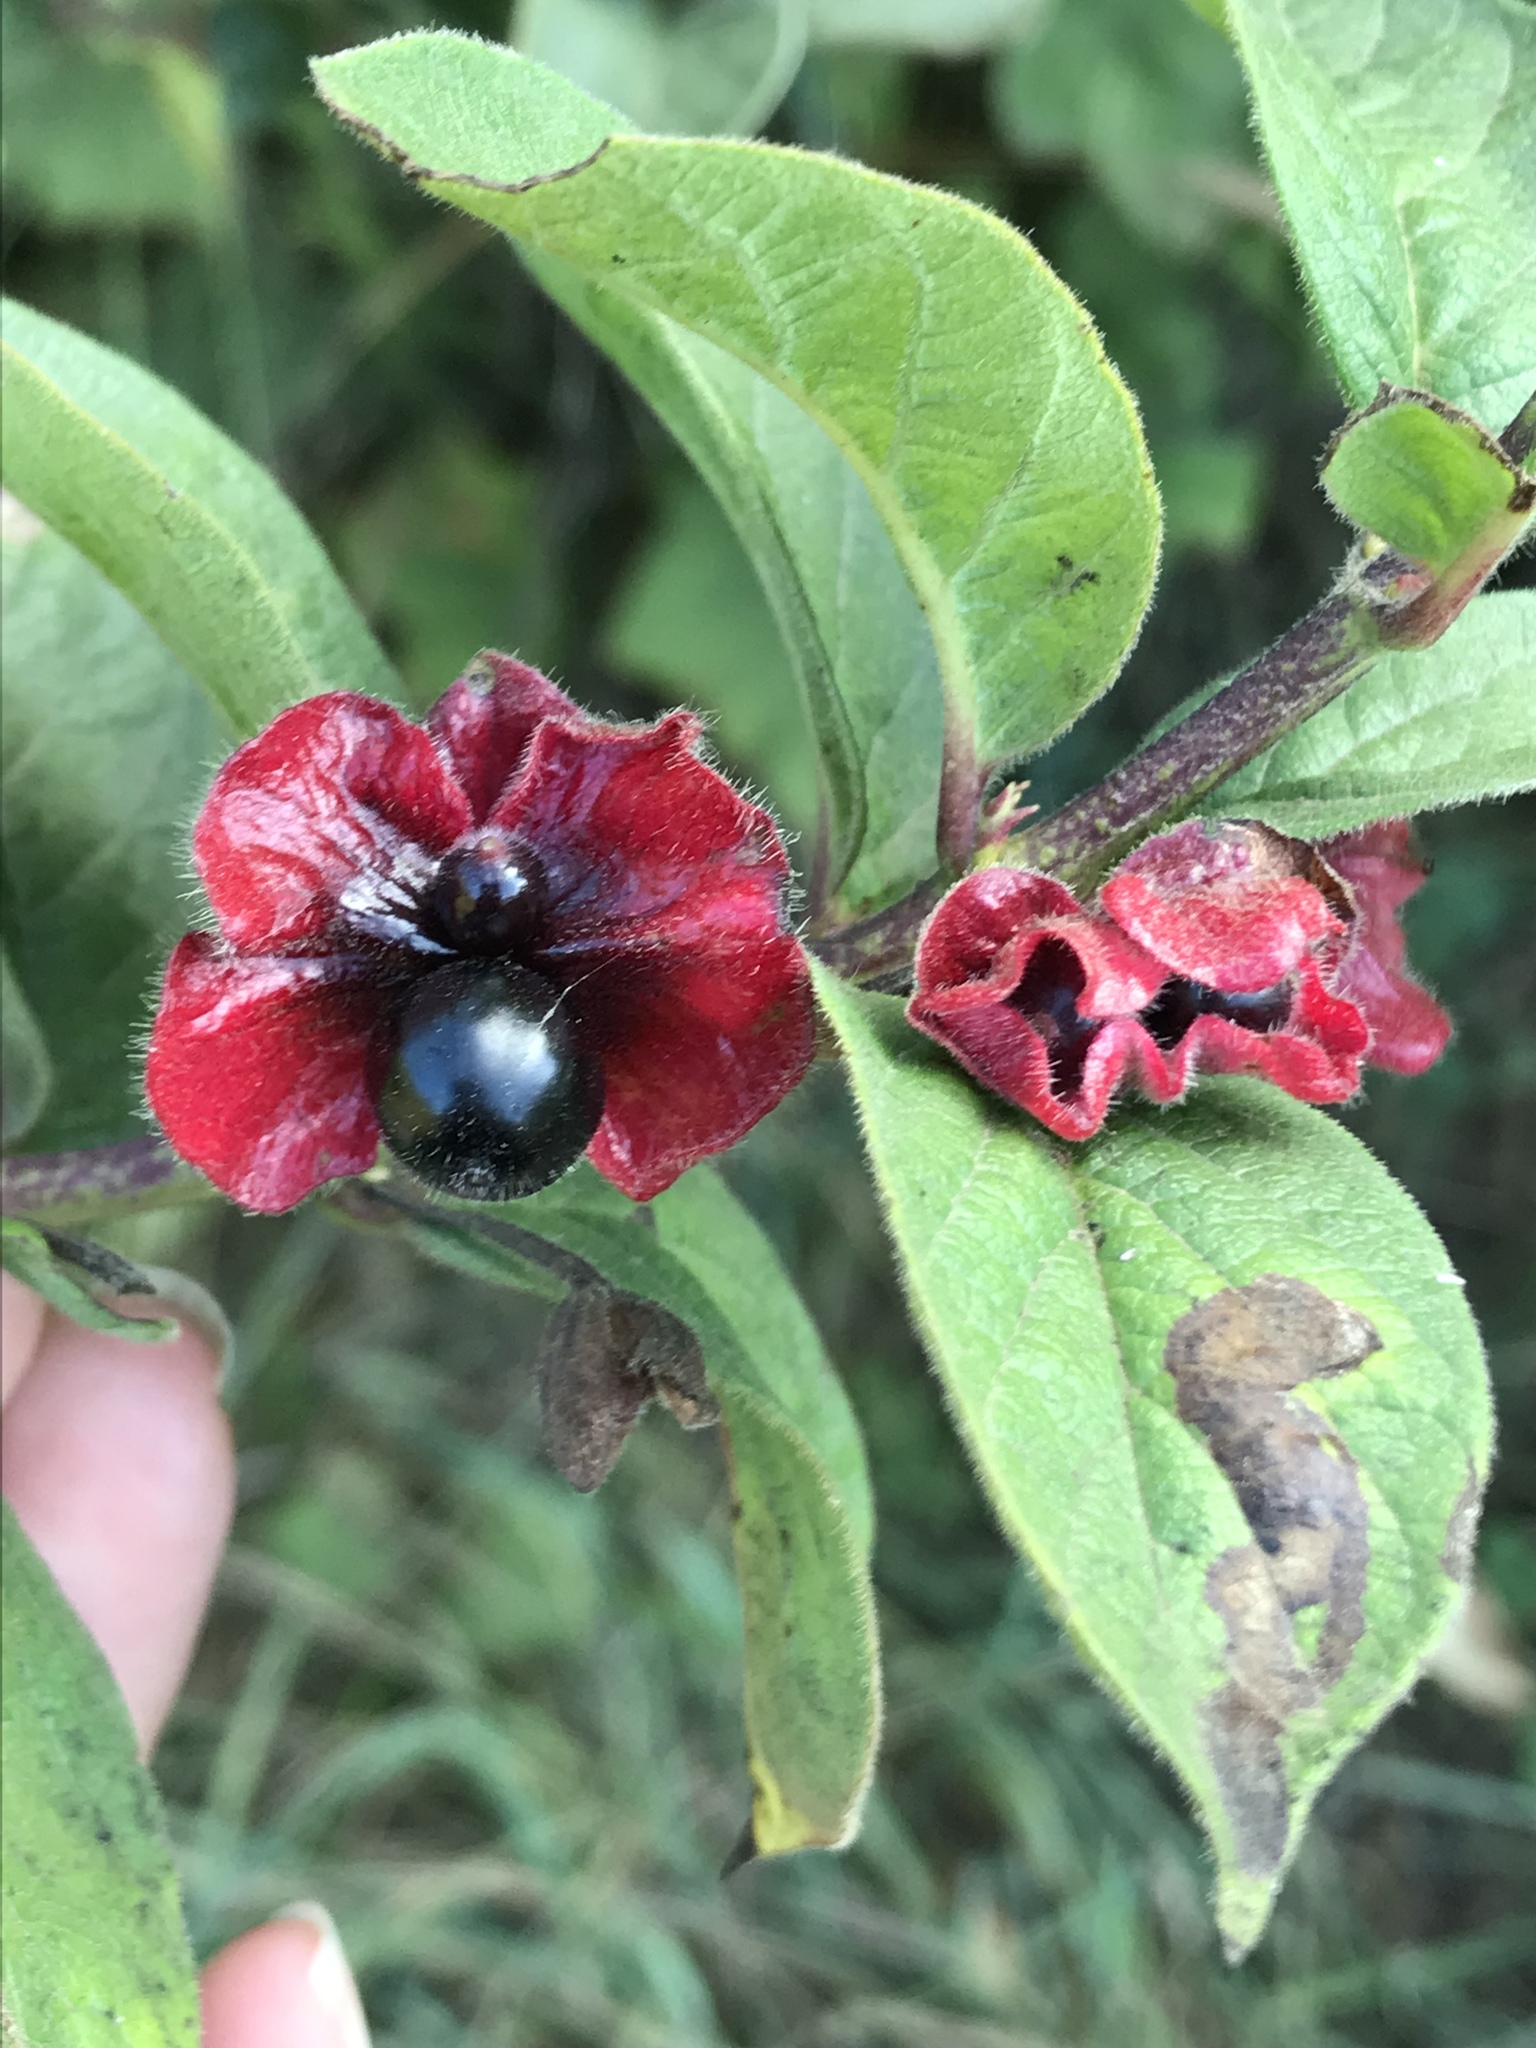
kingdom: Plantae
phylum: Tracheophyta
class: Magnoliopsida
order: Dipsacales
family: Caprifoliaceae
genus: Lonicera
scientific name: Lonicera involucrata
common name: Californian honeysuckle
